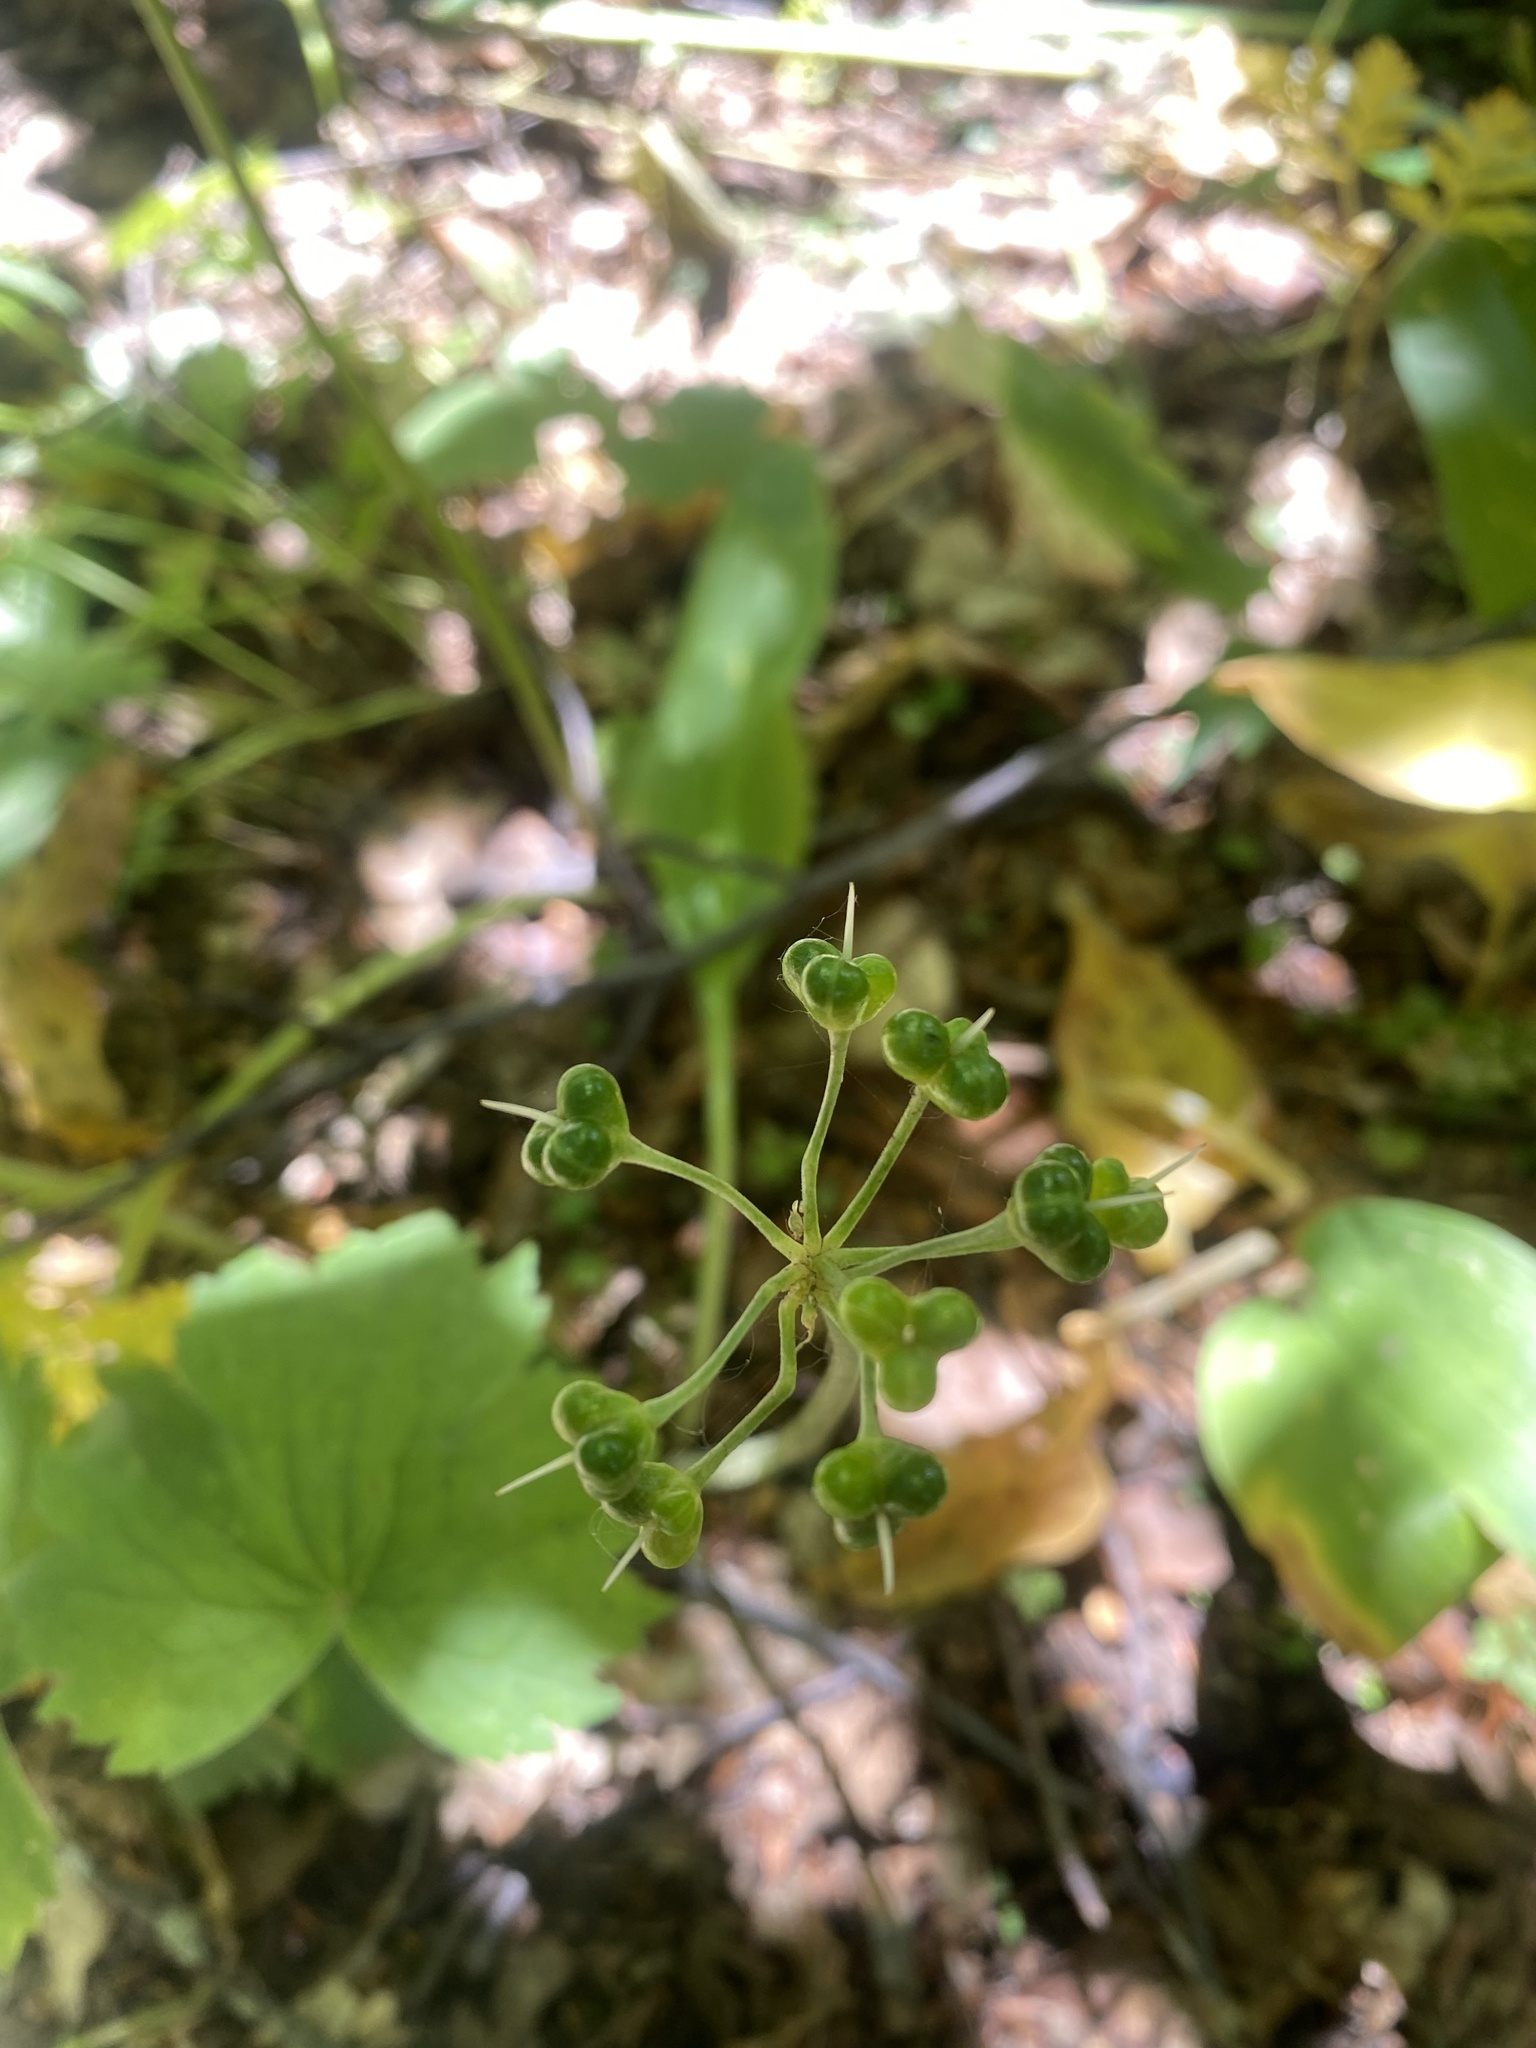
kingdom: Plantae
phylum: Tracheophyta
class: Liliopsida
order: Asparagales
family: Amaryllidaceae
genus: Allium
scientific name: Allium ursinum
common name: Ramsons
